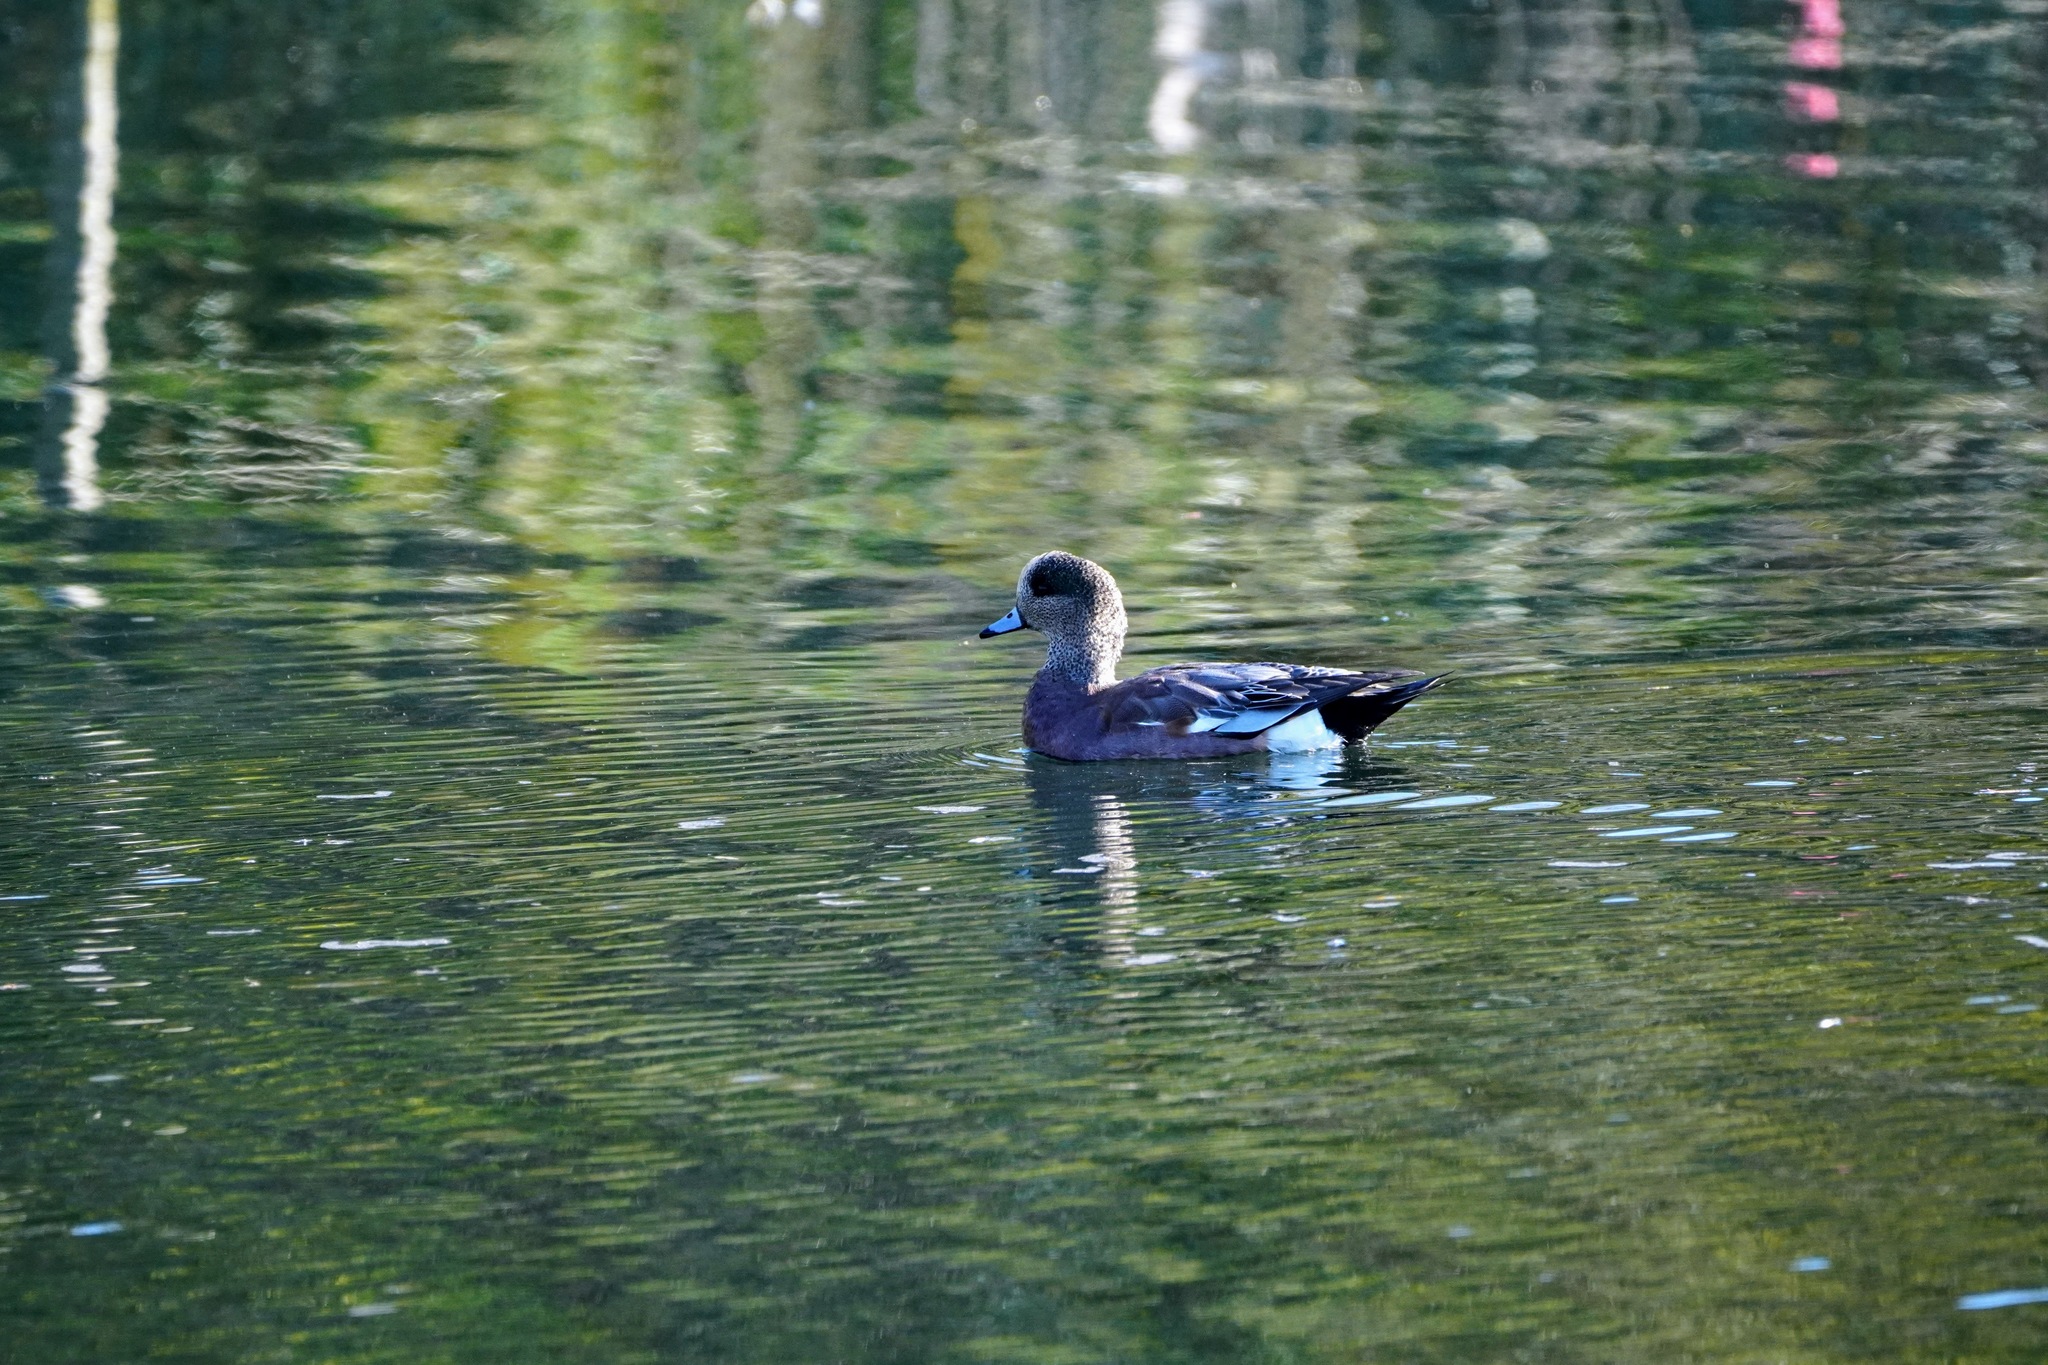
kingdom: Animalia
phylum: Chordata
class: Aves
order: Anseriformes
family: Anatidae
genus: Mareca
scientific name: Mareca americana
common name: American wigeon
